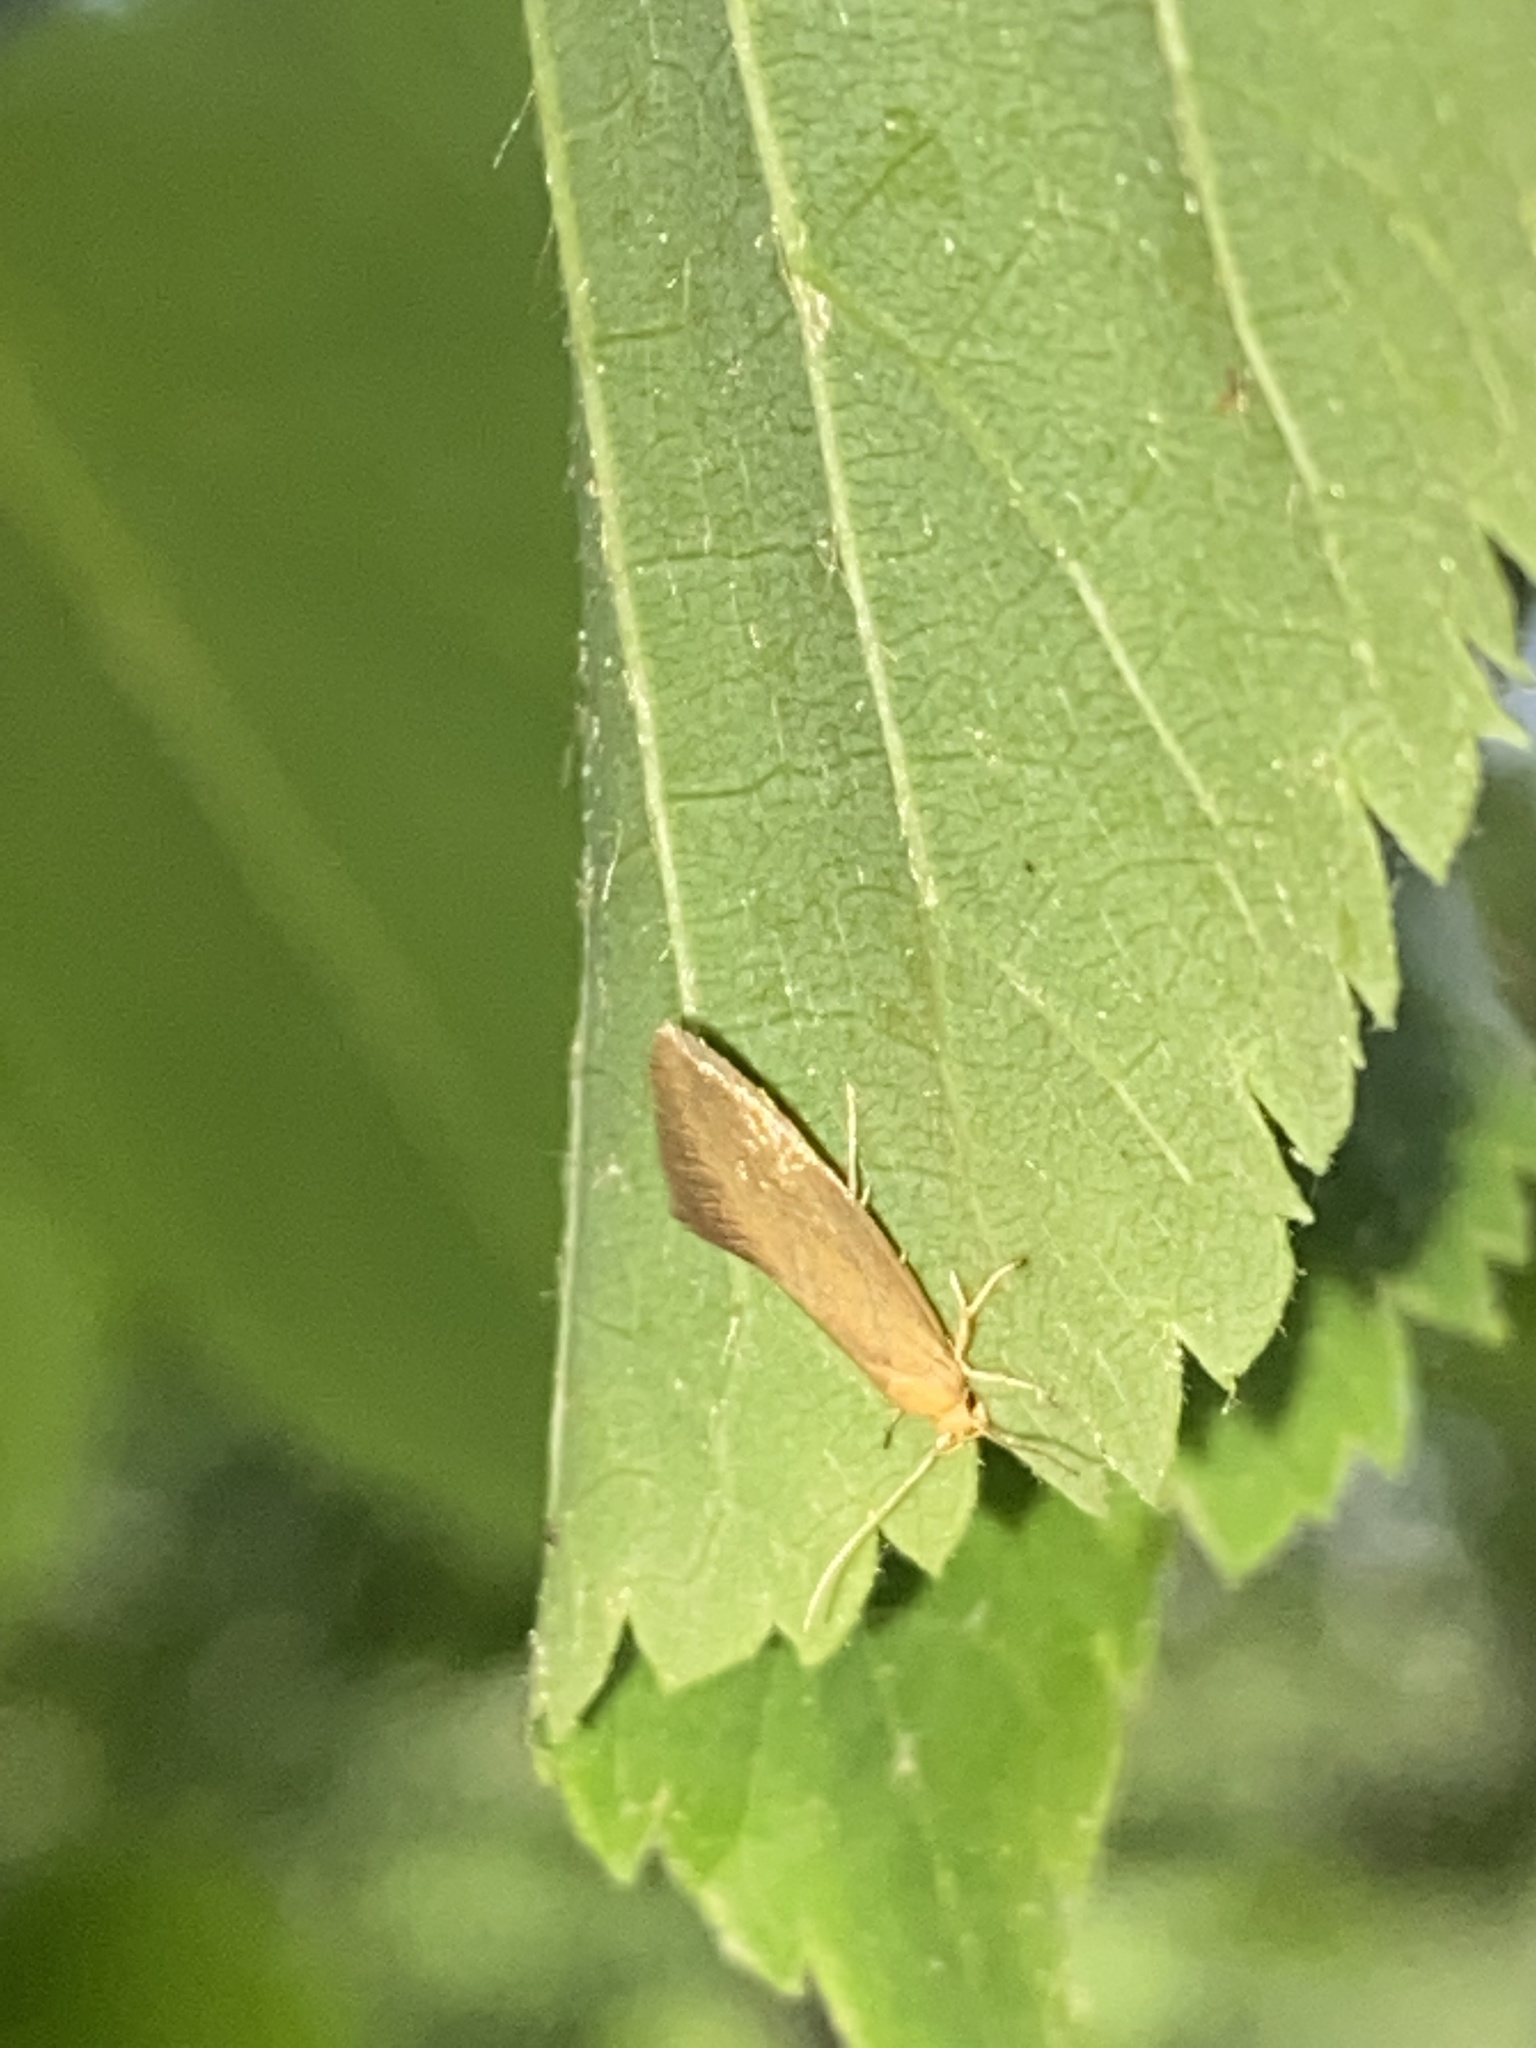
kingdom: Animalia
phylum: Arthropoda
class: Insecta
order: Lepidoptera
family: Oecophoridae
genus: Borkhausenia
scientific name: Borkhausenia Crassa tinctella
